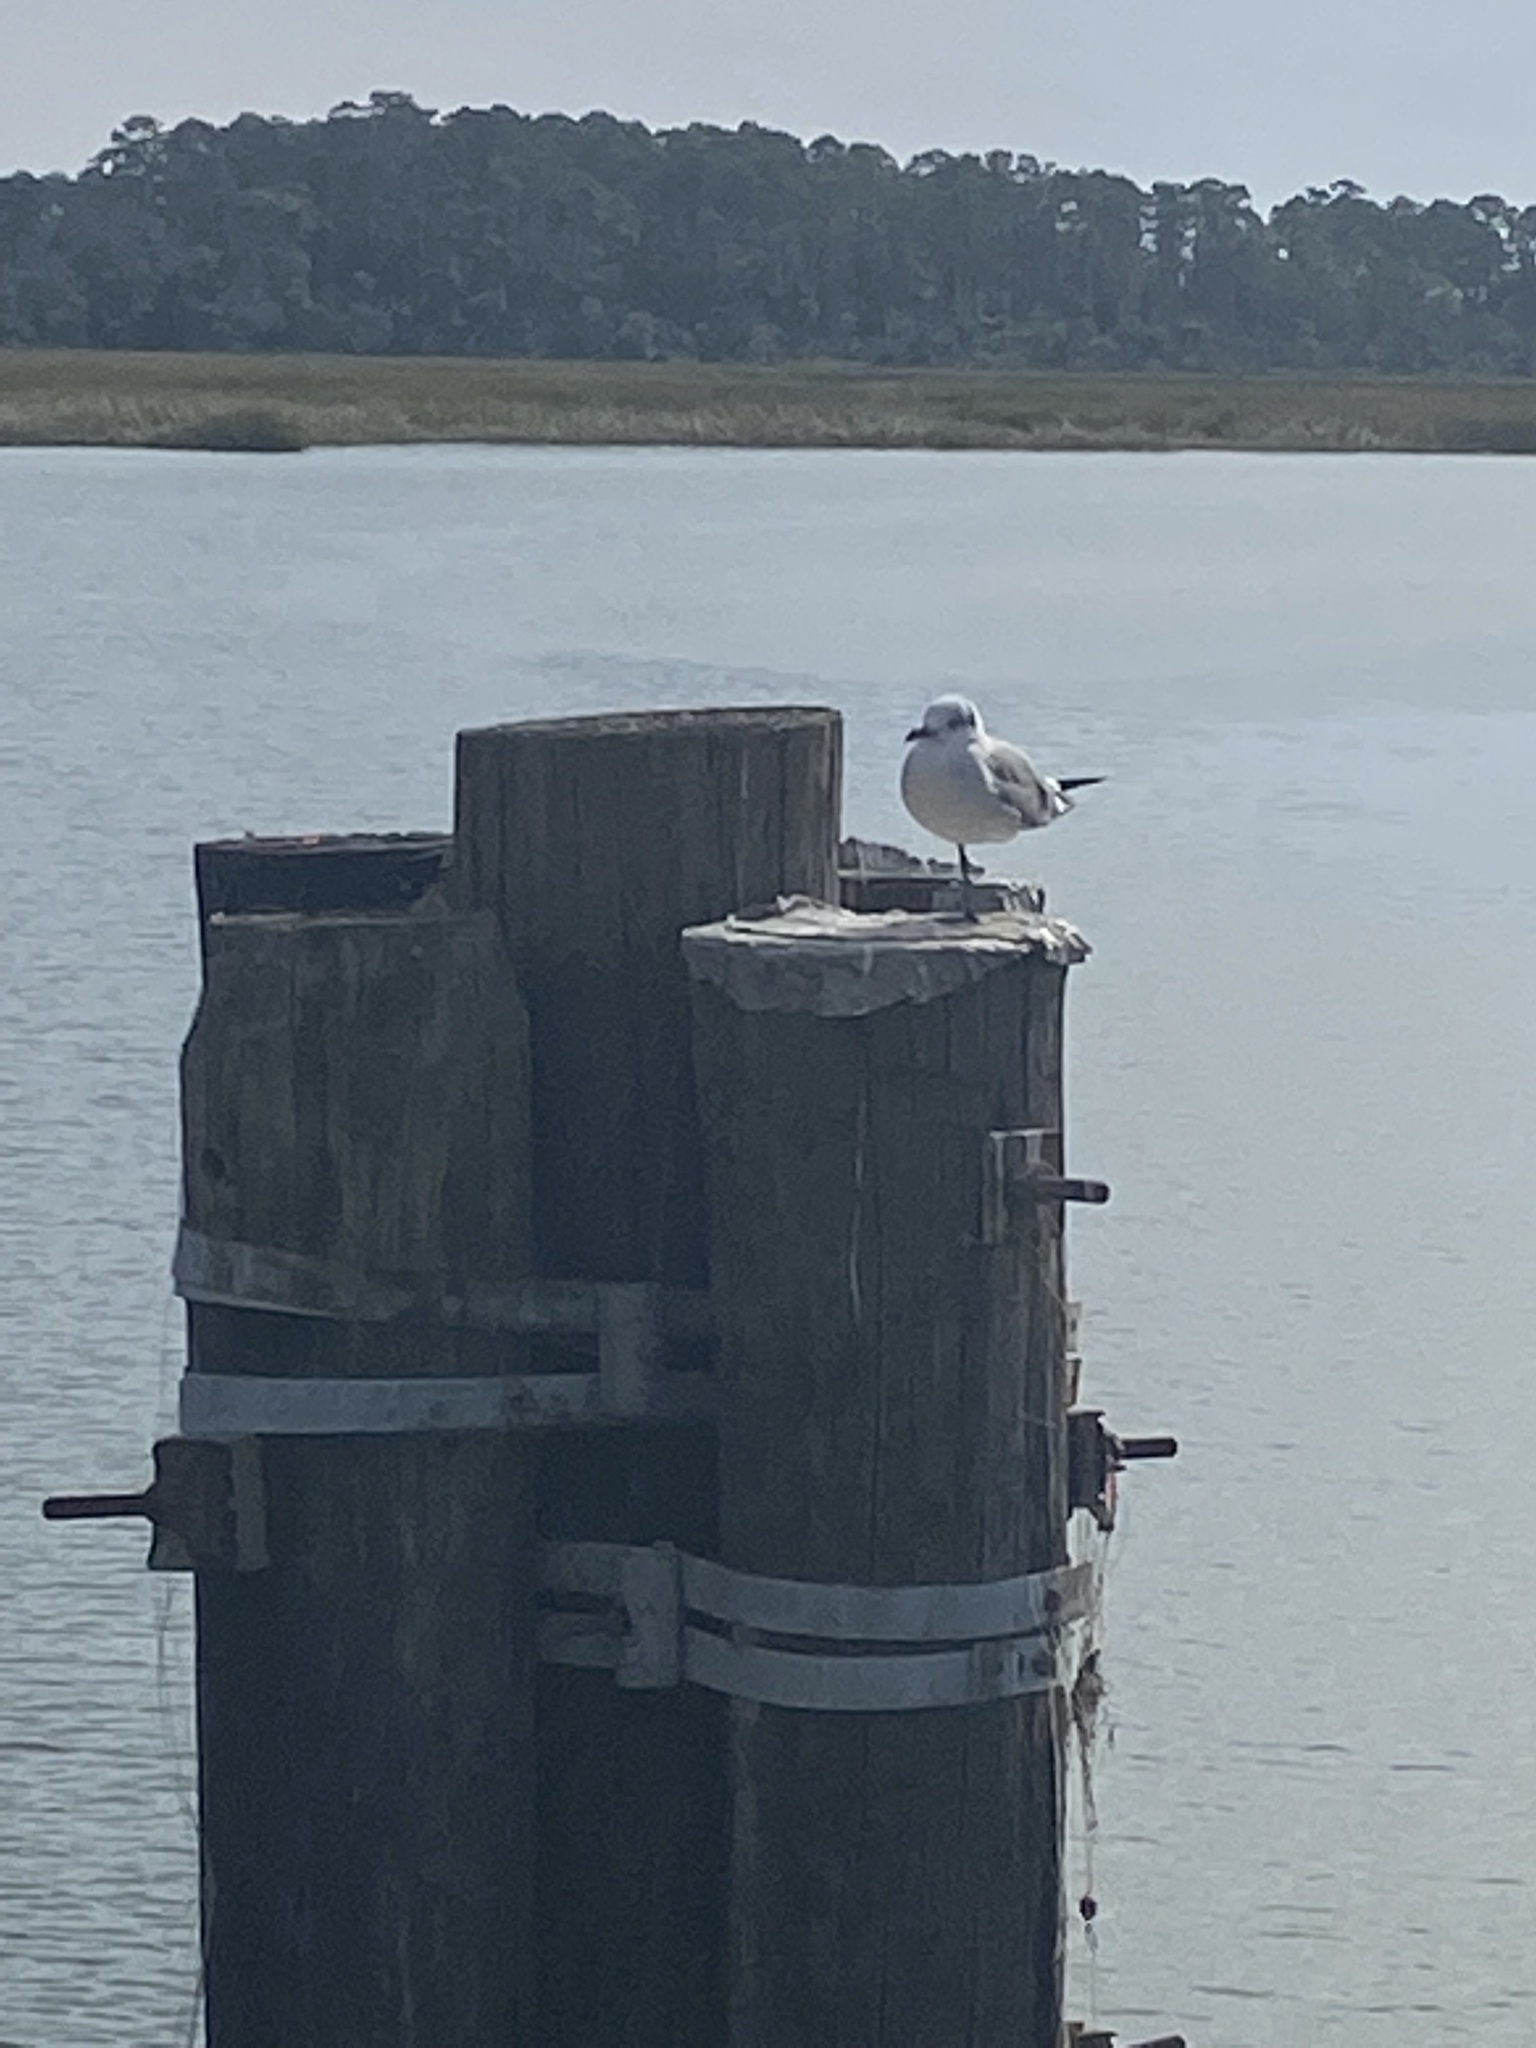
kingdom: Animalia
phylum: Chordata
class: Aves
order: Charadriiformes
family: Laridae
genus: Leucophaeus
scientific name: Leucophaeus atricilla
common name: Laughing gull
